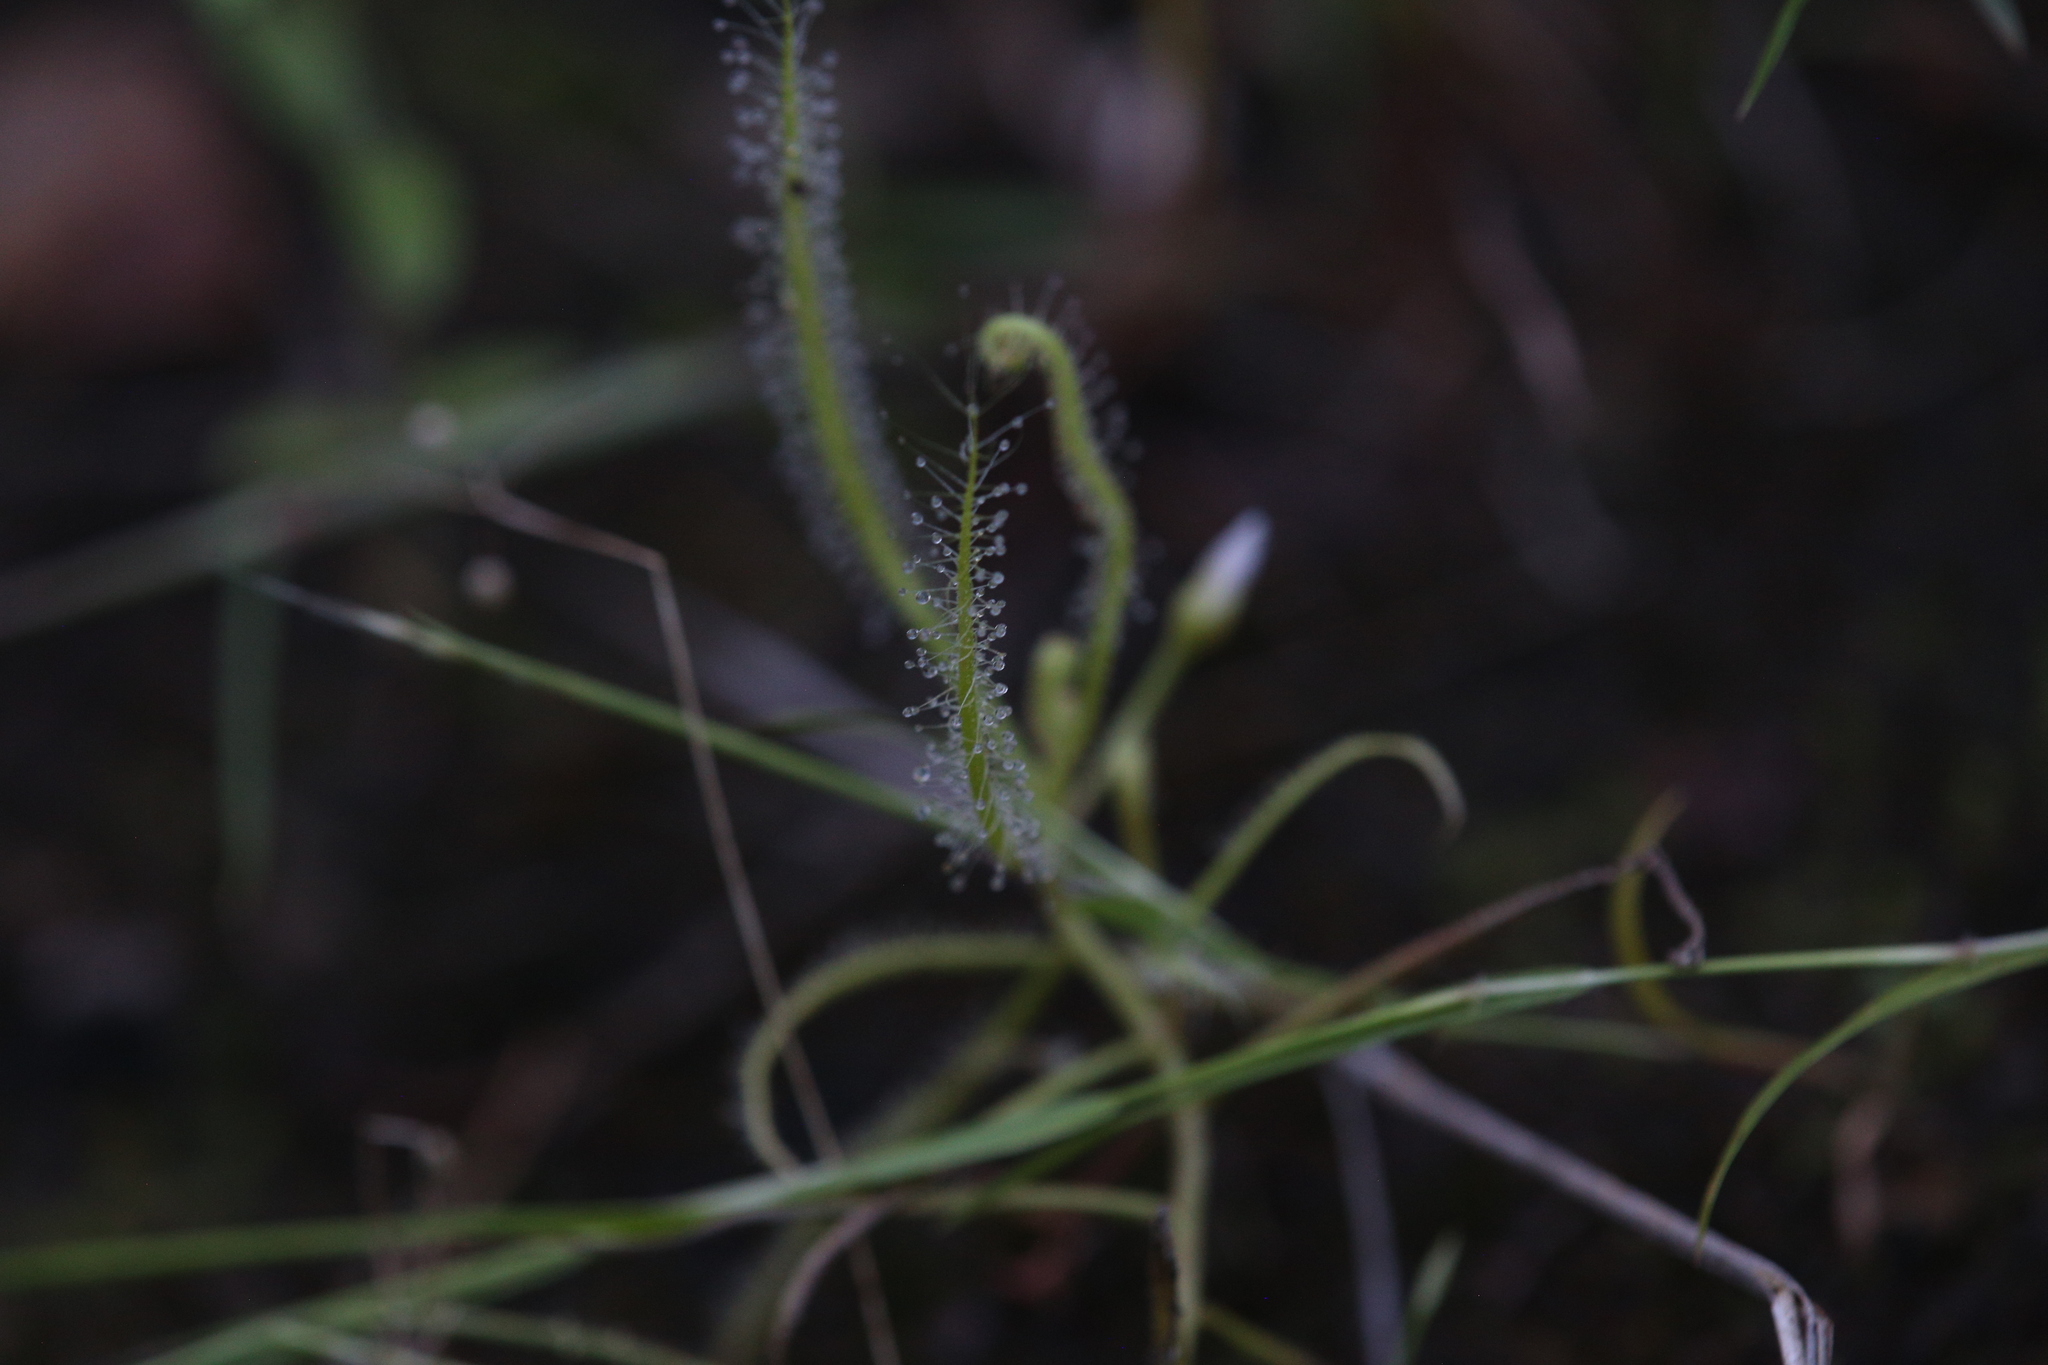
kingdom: Plantae
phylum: Tracheophyta
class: Magnoliopsida
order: Caryophyllales
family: Droseraceae
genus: Drosera
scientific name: Drosera indica
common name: Indian sundew
